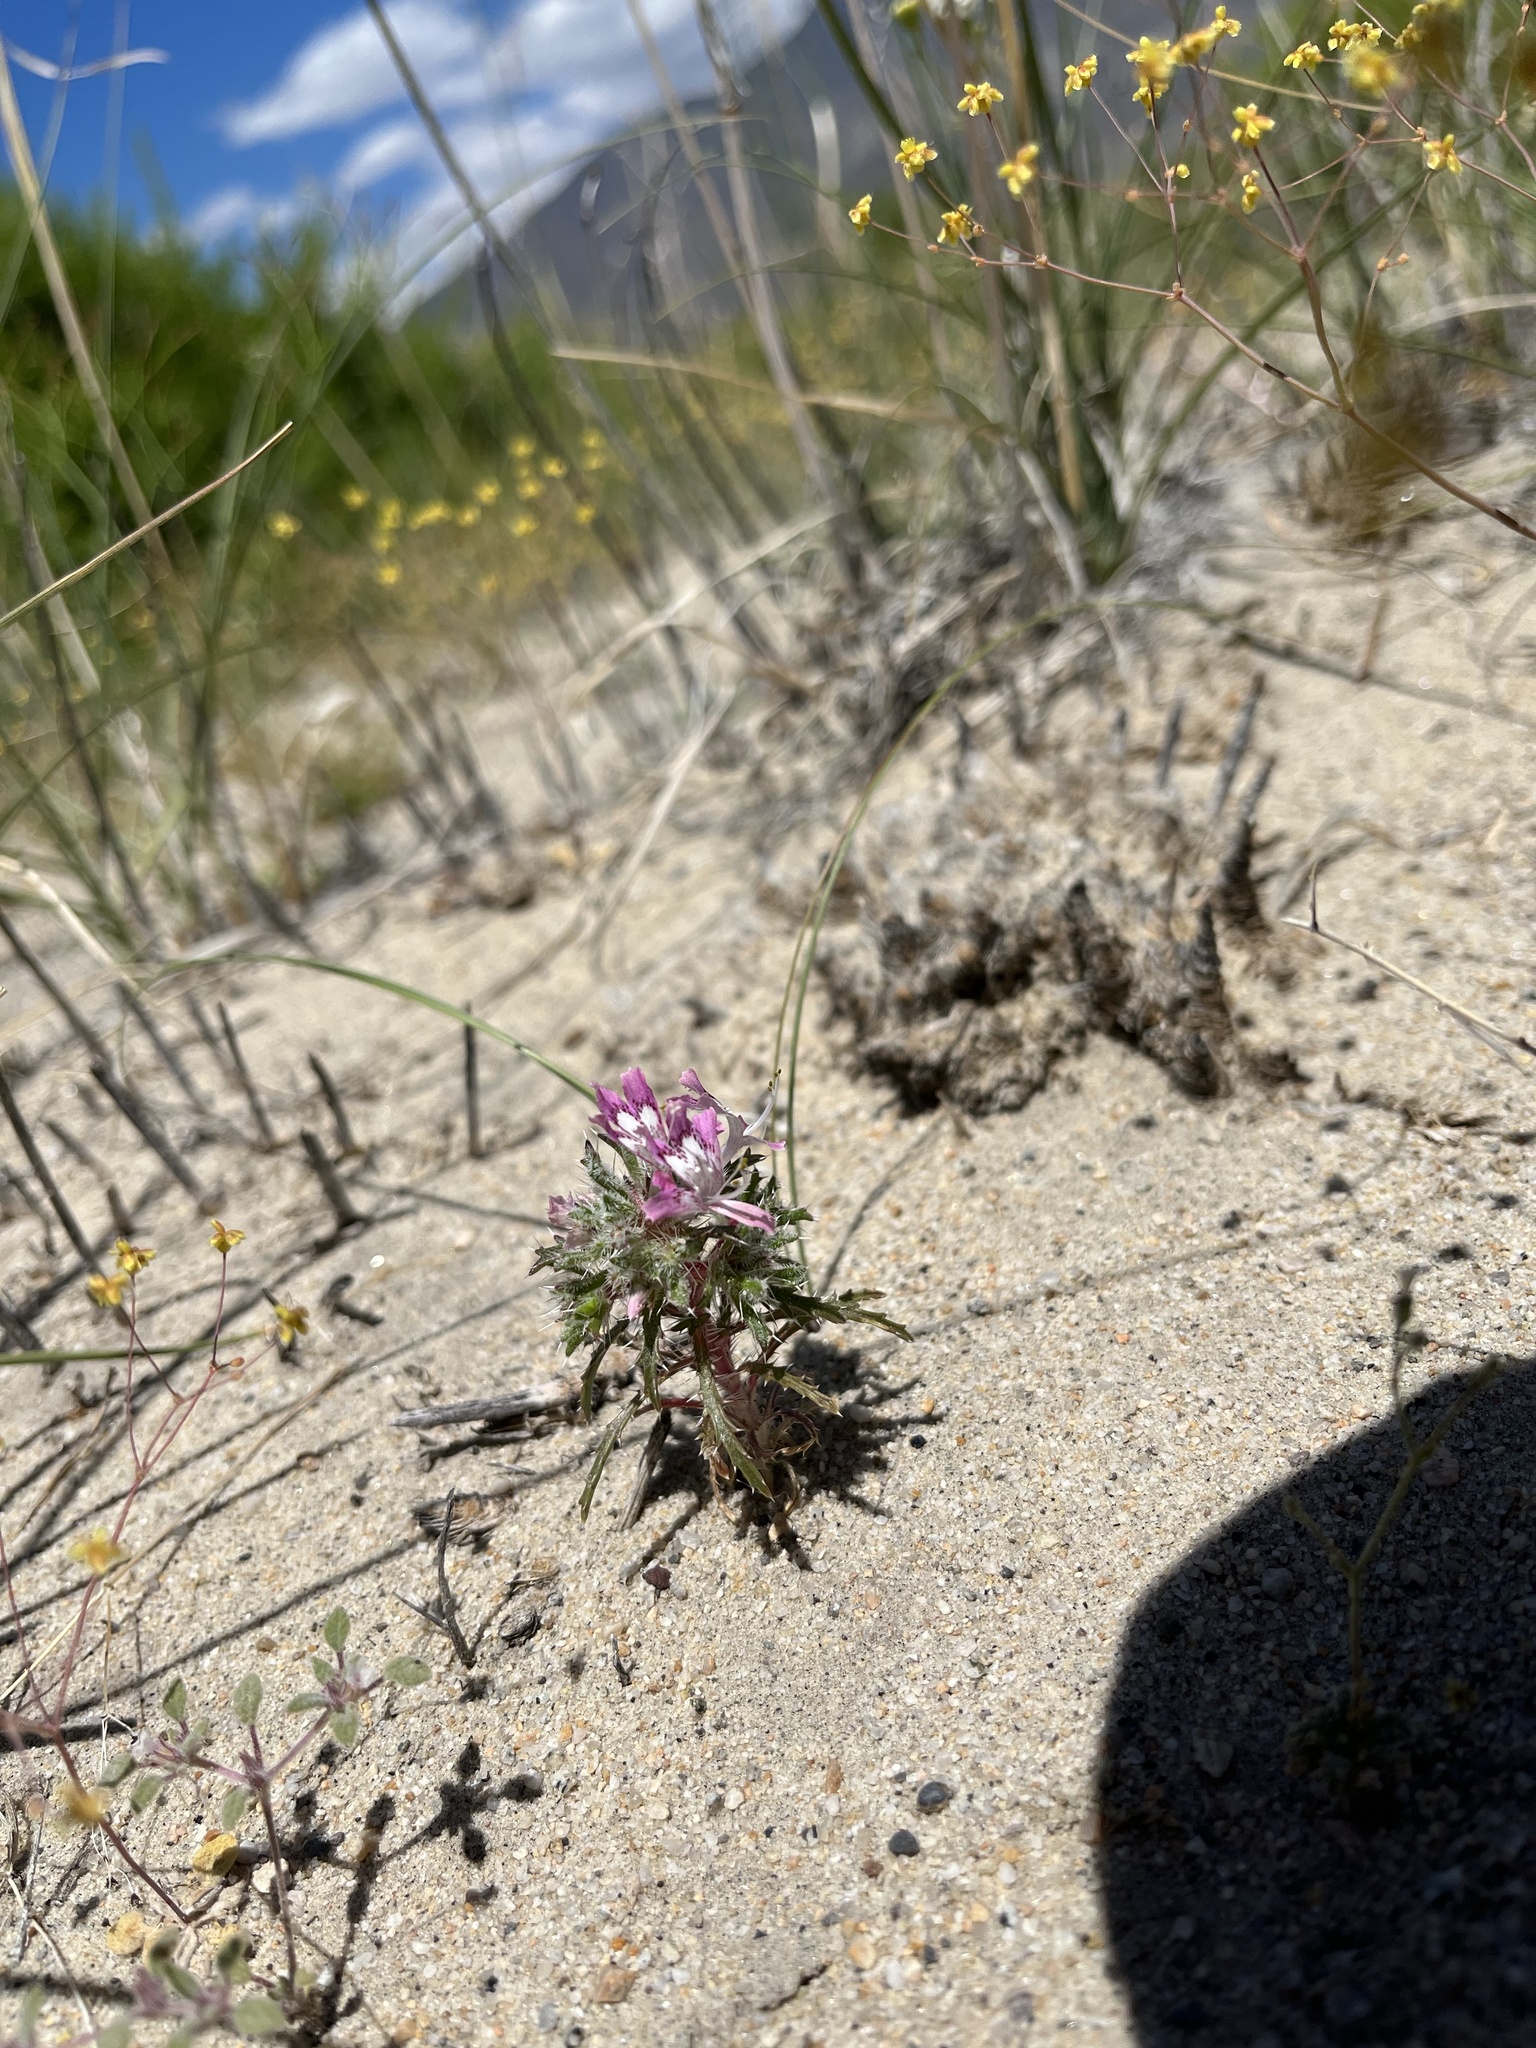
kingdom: Plantae
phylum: Tracheophyta
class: Magnoliopsida
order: Ericales
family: Polemoniaceae
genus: Loeseliastrum
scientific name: Loeseliastrum matthewsii
